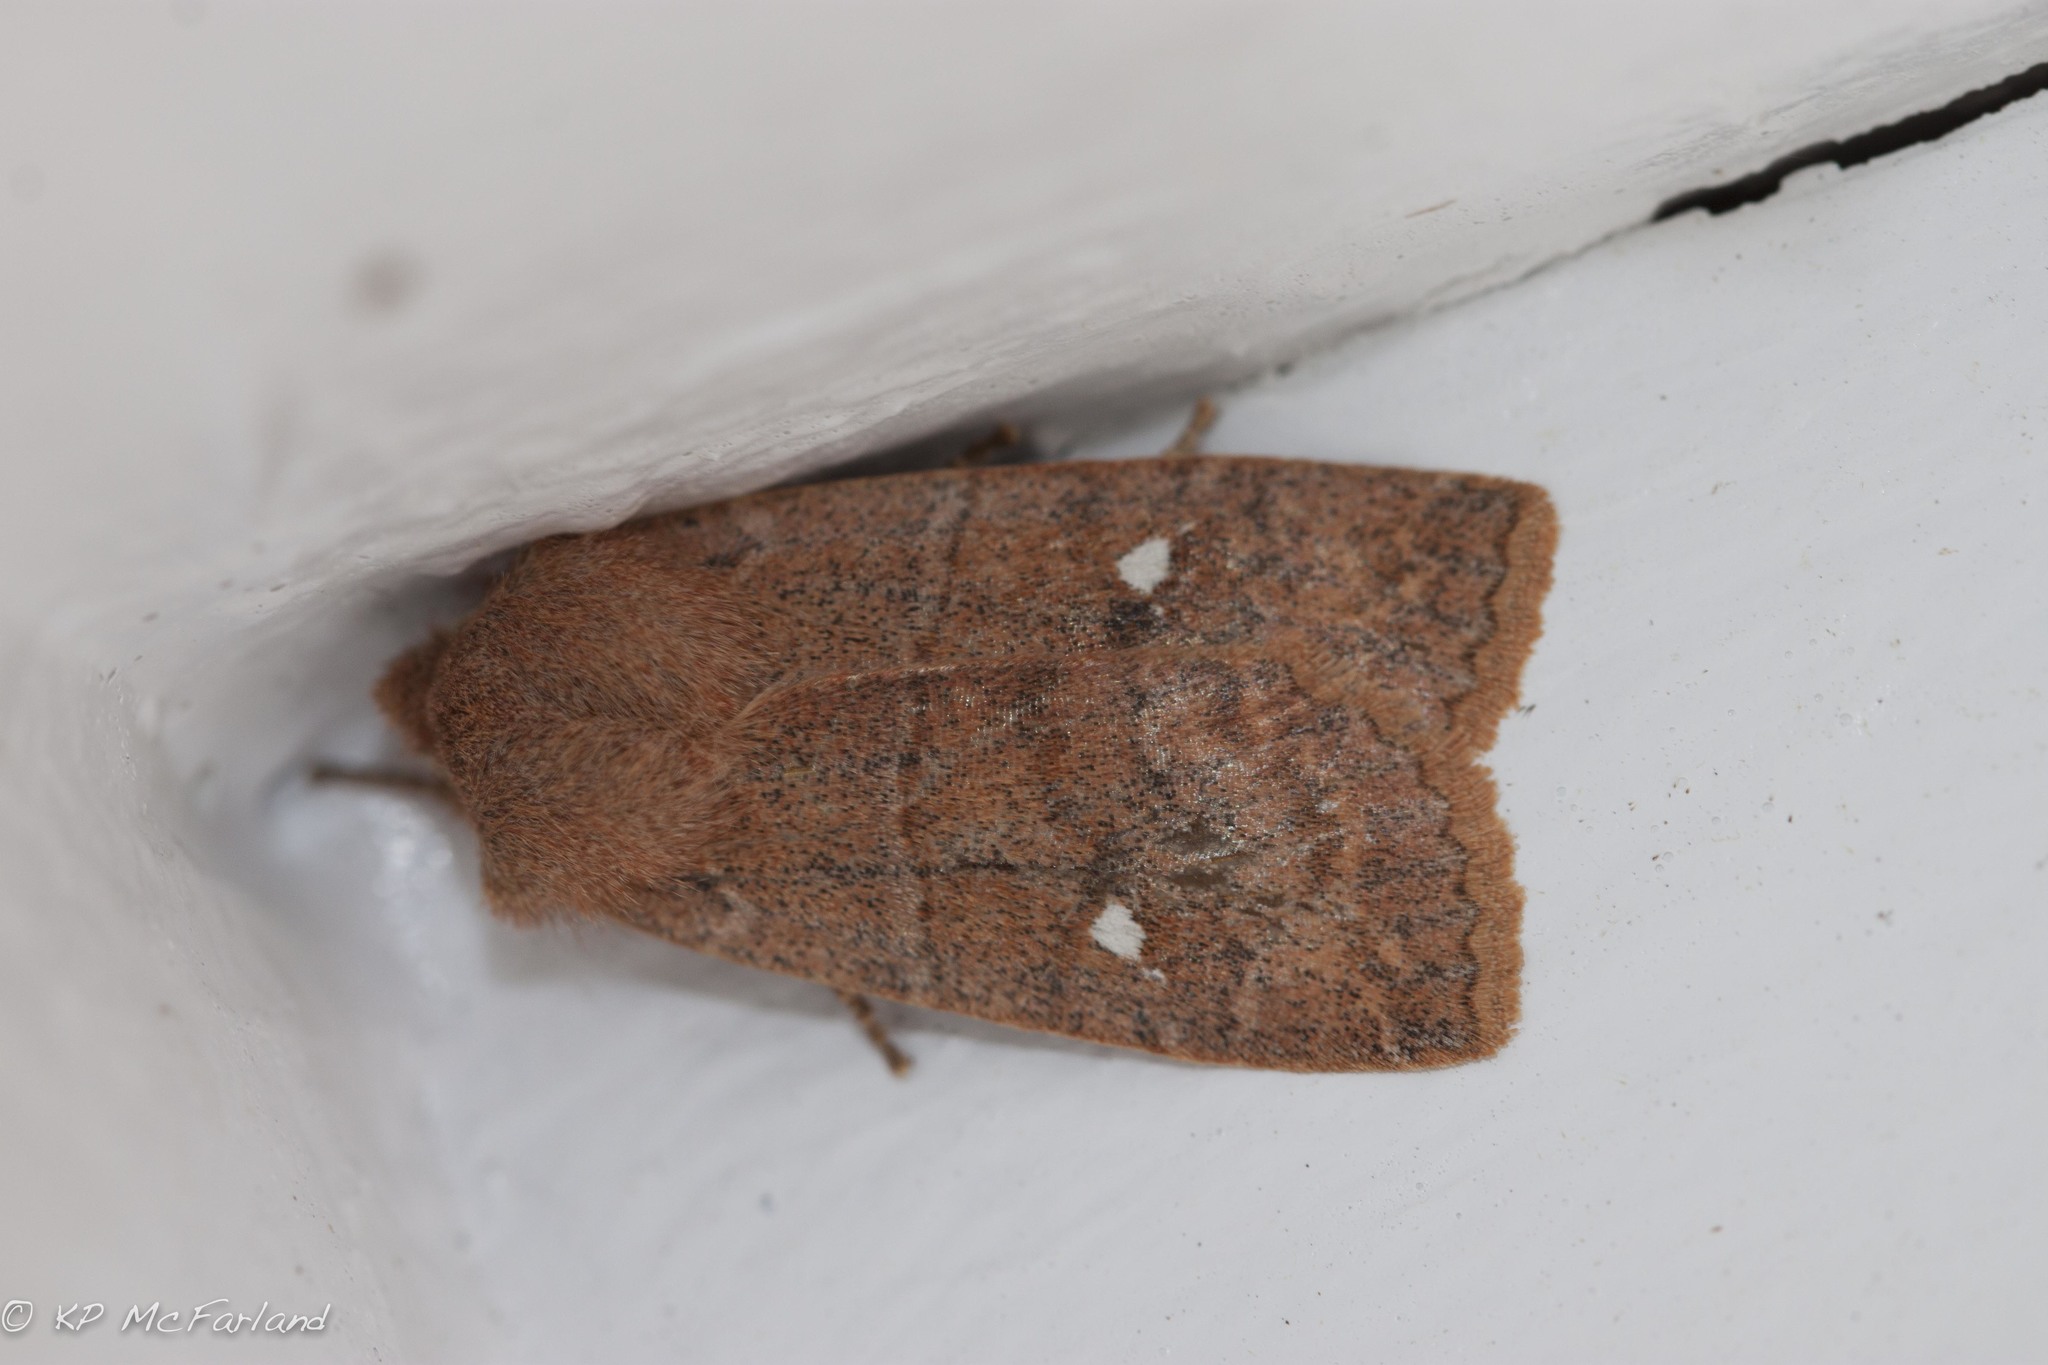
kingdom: Animalia
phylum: Arthropoda
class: Insecta
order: Lepidoptera
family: Noctuidae
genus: Eupsilia
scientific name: Eupsilia vinulenta
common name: Straight-toothed sallow
